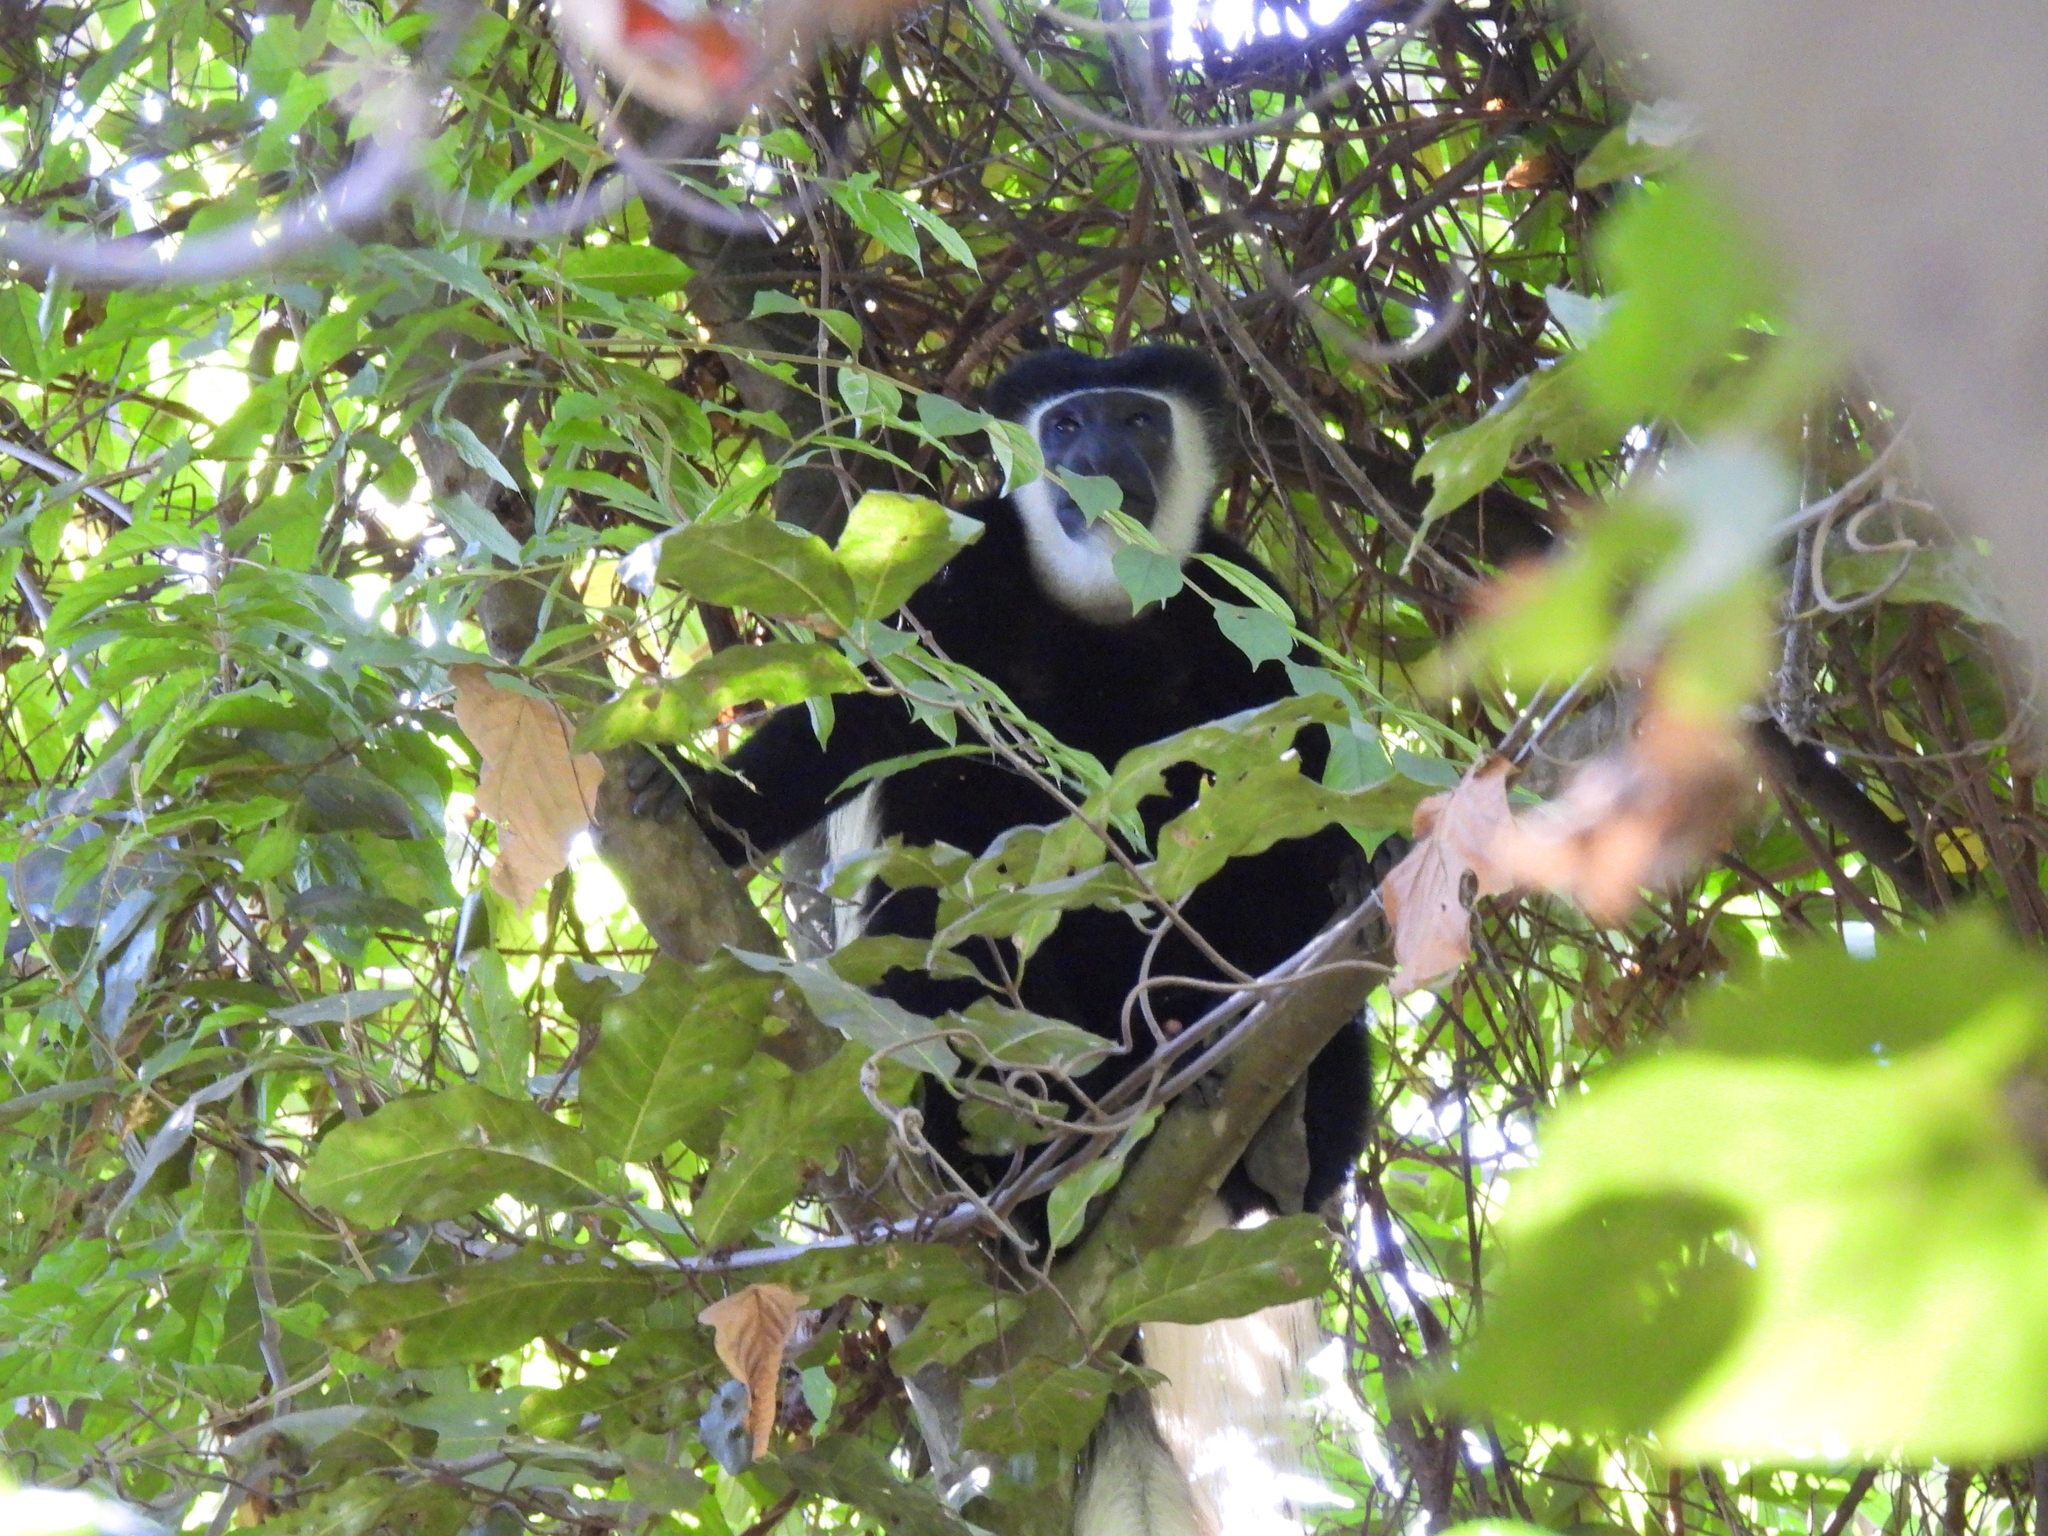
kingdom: Animalia
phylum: Chordata
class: Mammalia
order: Primates
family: Cercopithecidae
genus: Colobus
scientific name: Colobus caudatus
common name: Mount kilimanjaro guereza
